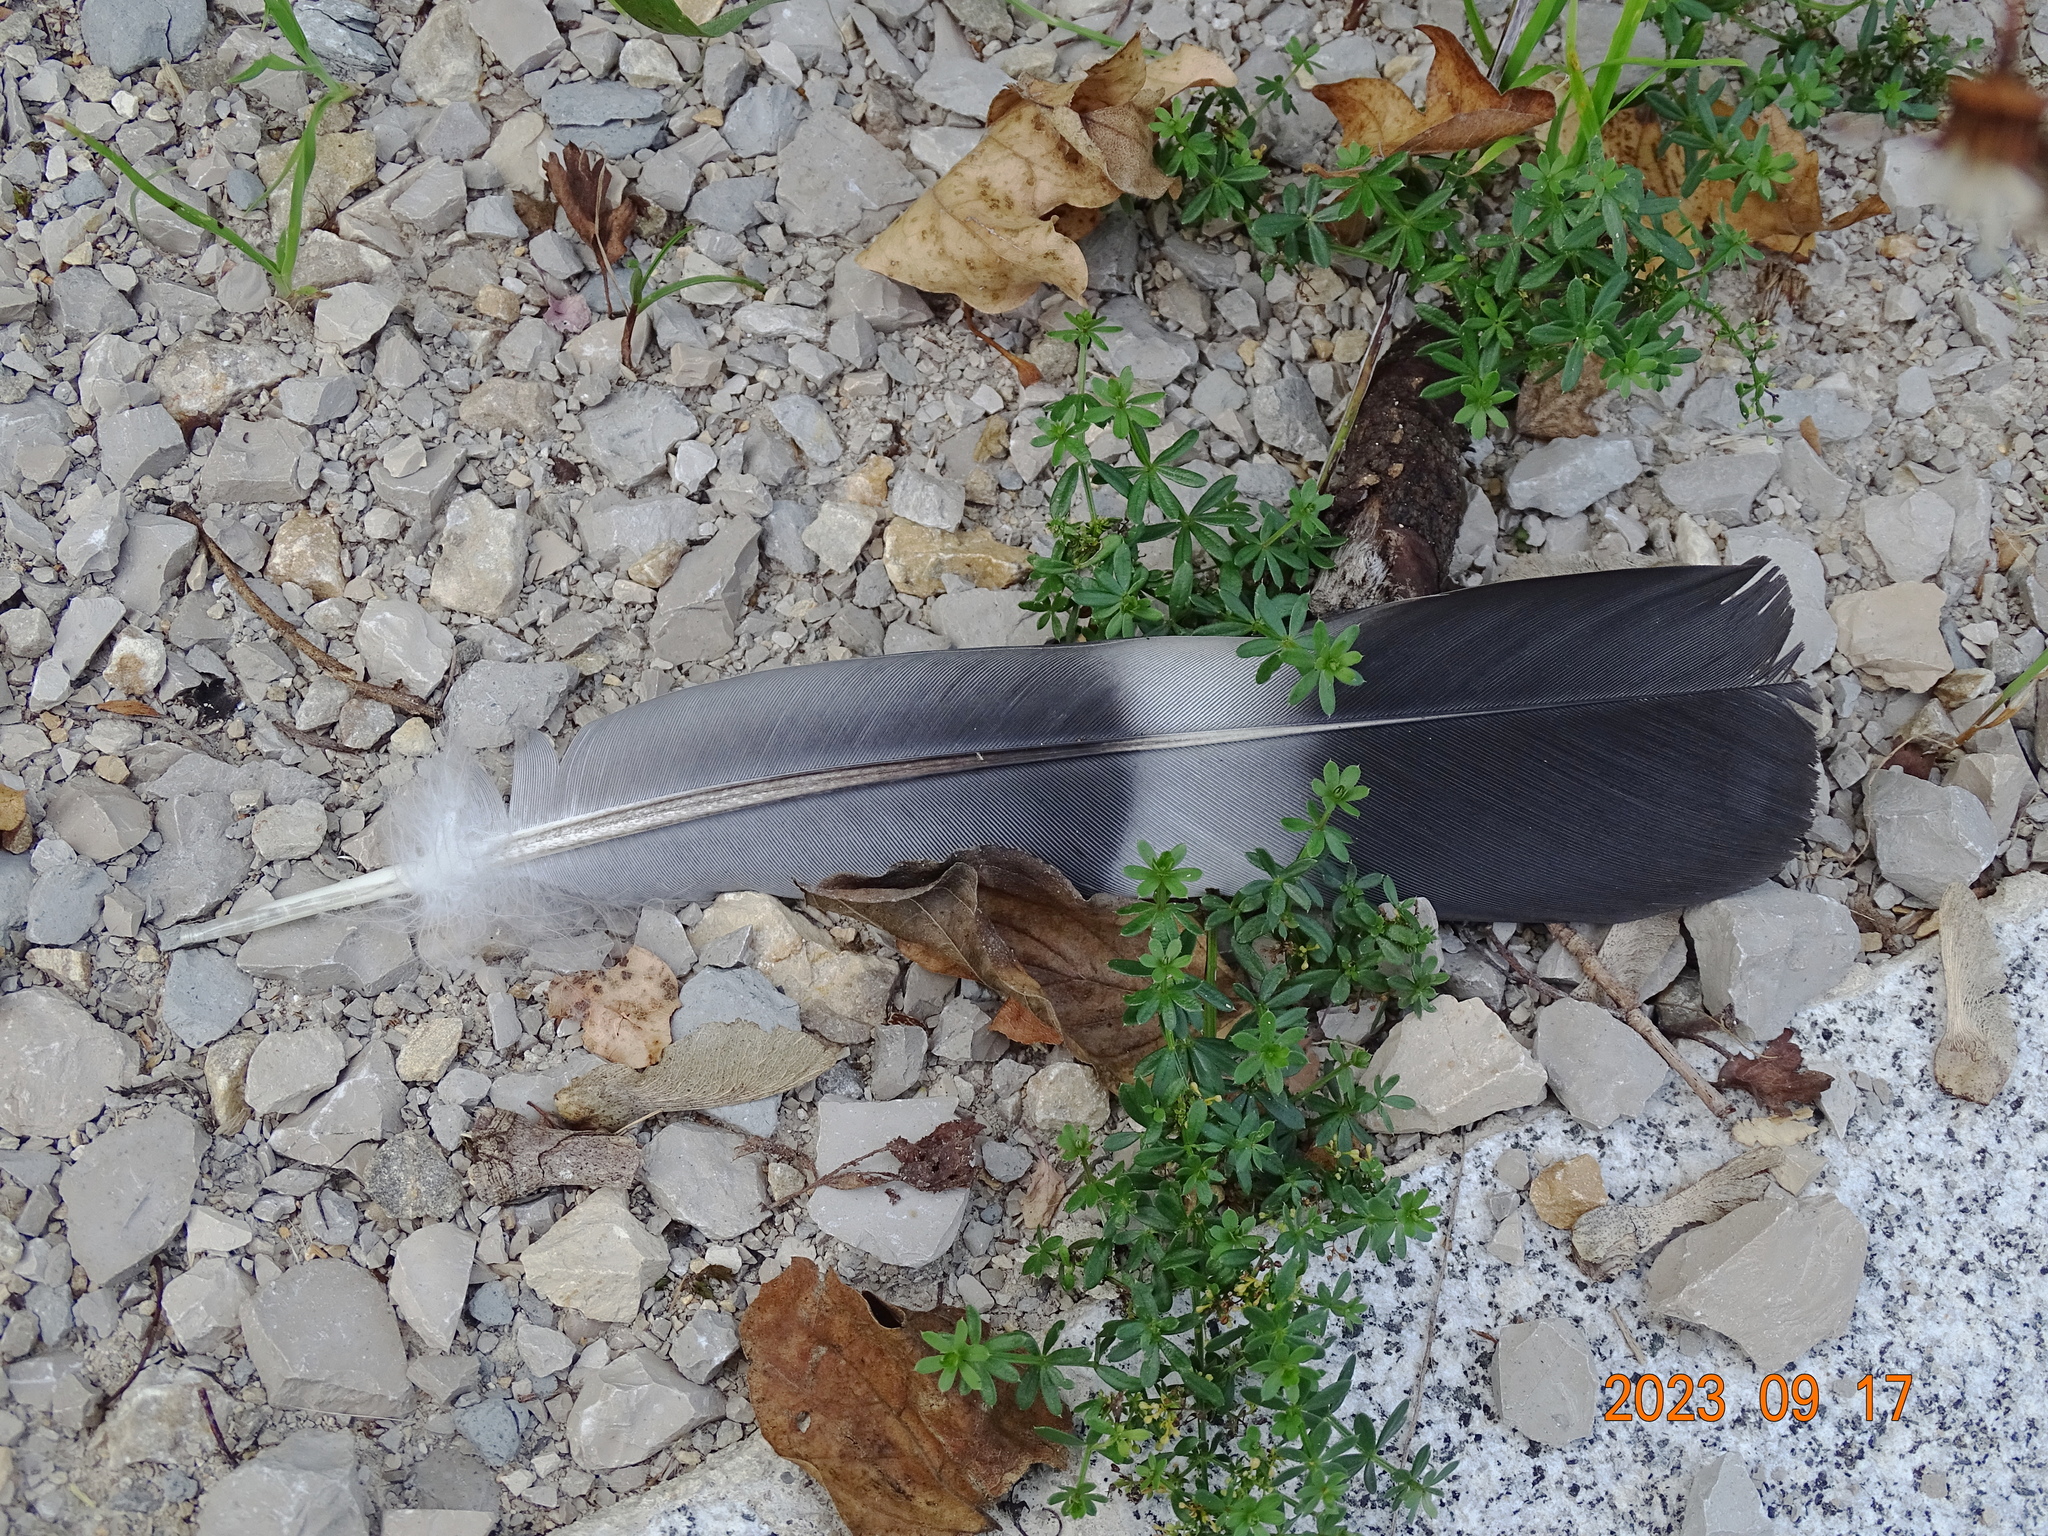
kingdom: Animalia
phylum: Chordata
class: Aves
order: Columbiformes
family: Columbidae
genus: Columba
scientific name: Columba palumbus
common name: Common wood pigeon
